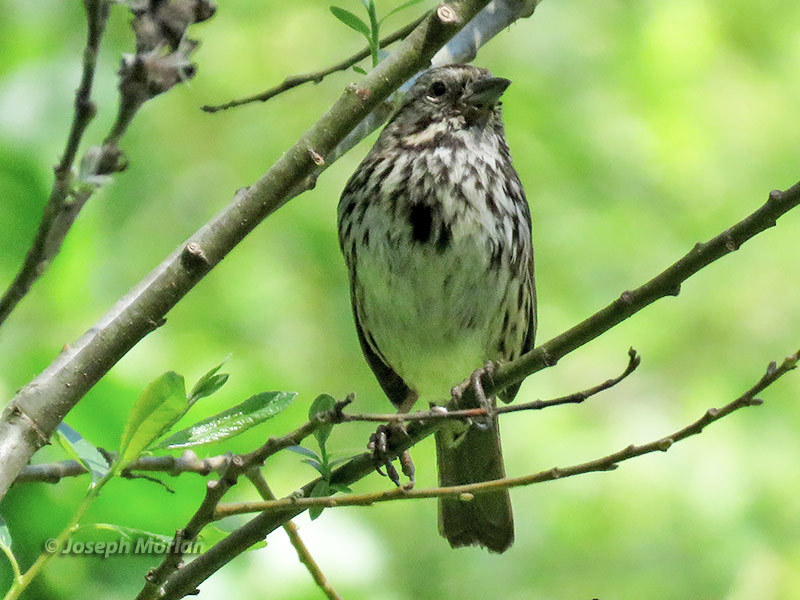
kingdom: Animalia
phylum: Chordata
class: Aves
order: Passeriformes
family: Passerellidae
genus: Melospiza
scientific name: Melospiza melodia
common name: Song sparrow
